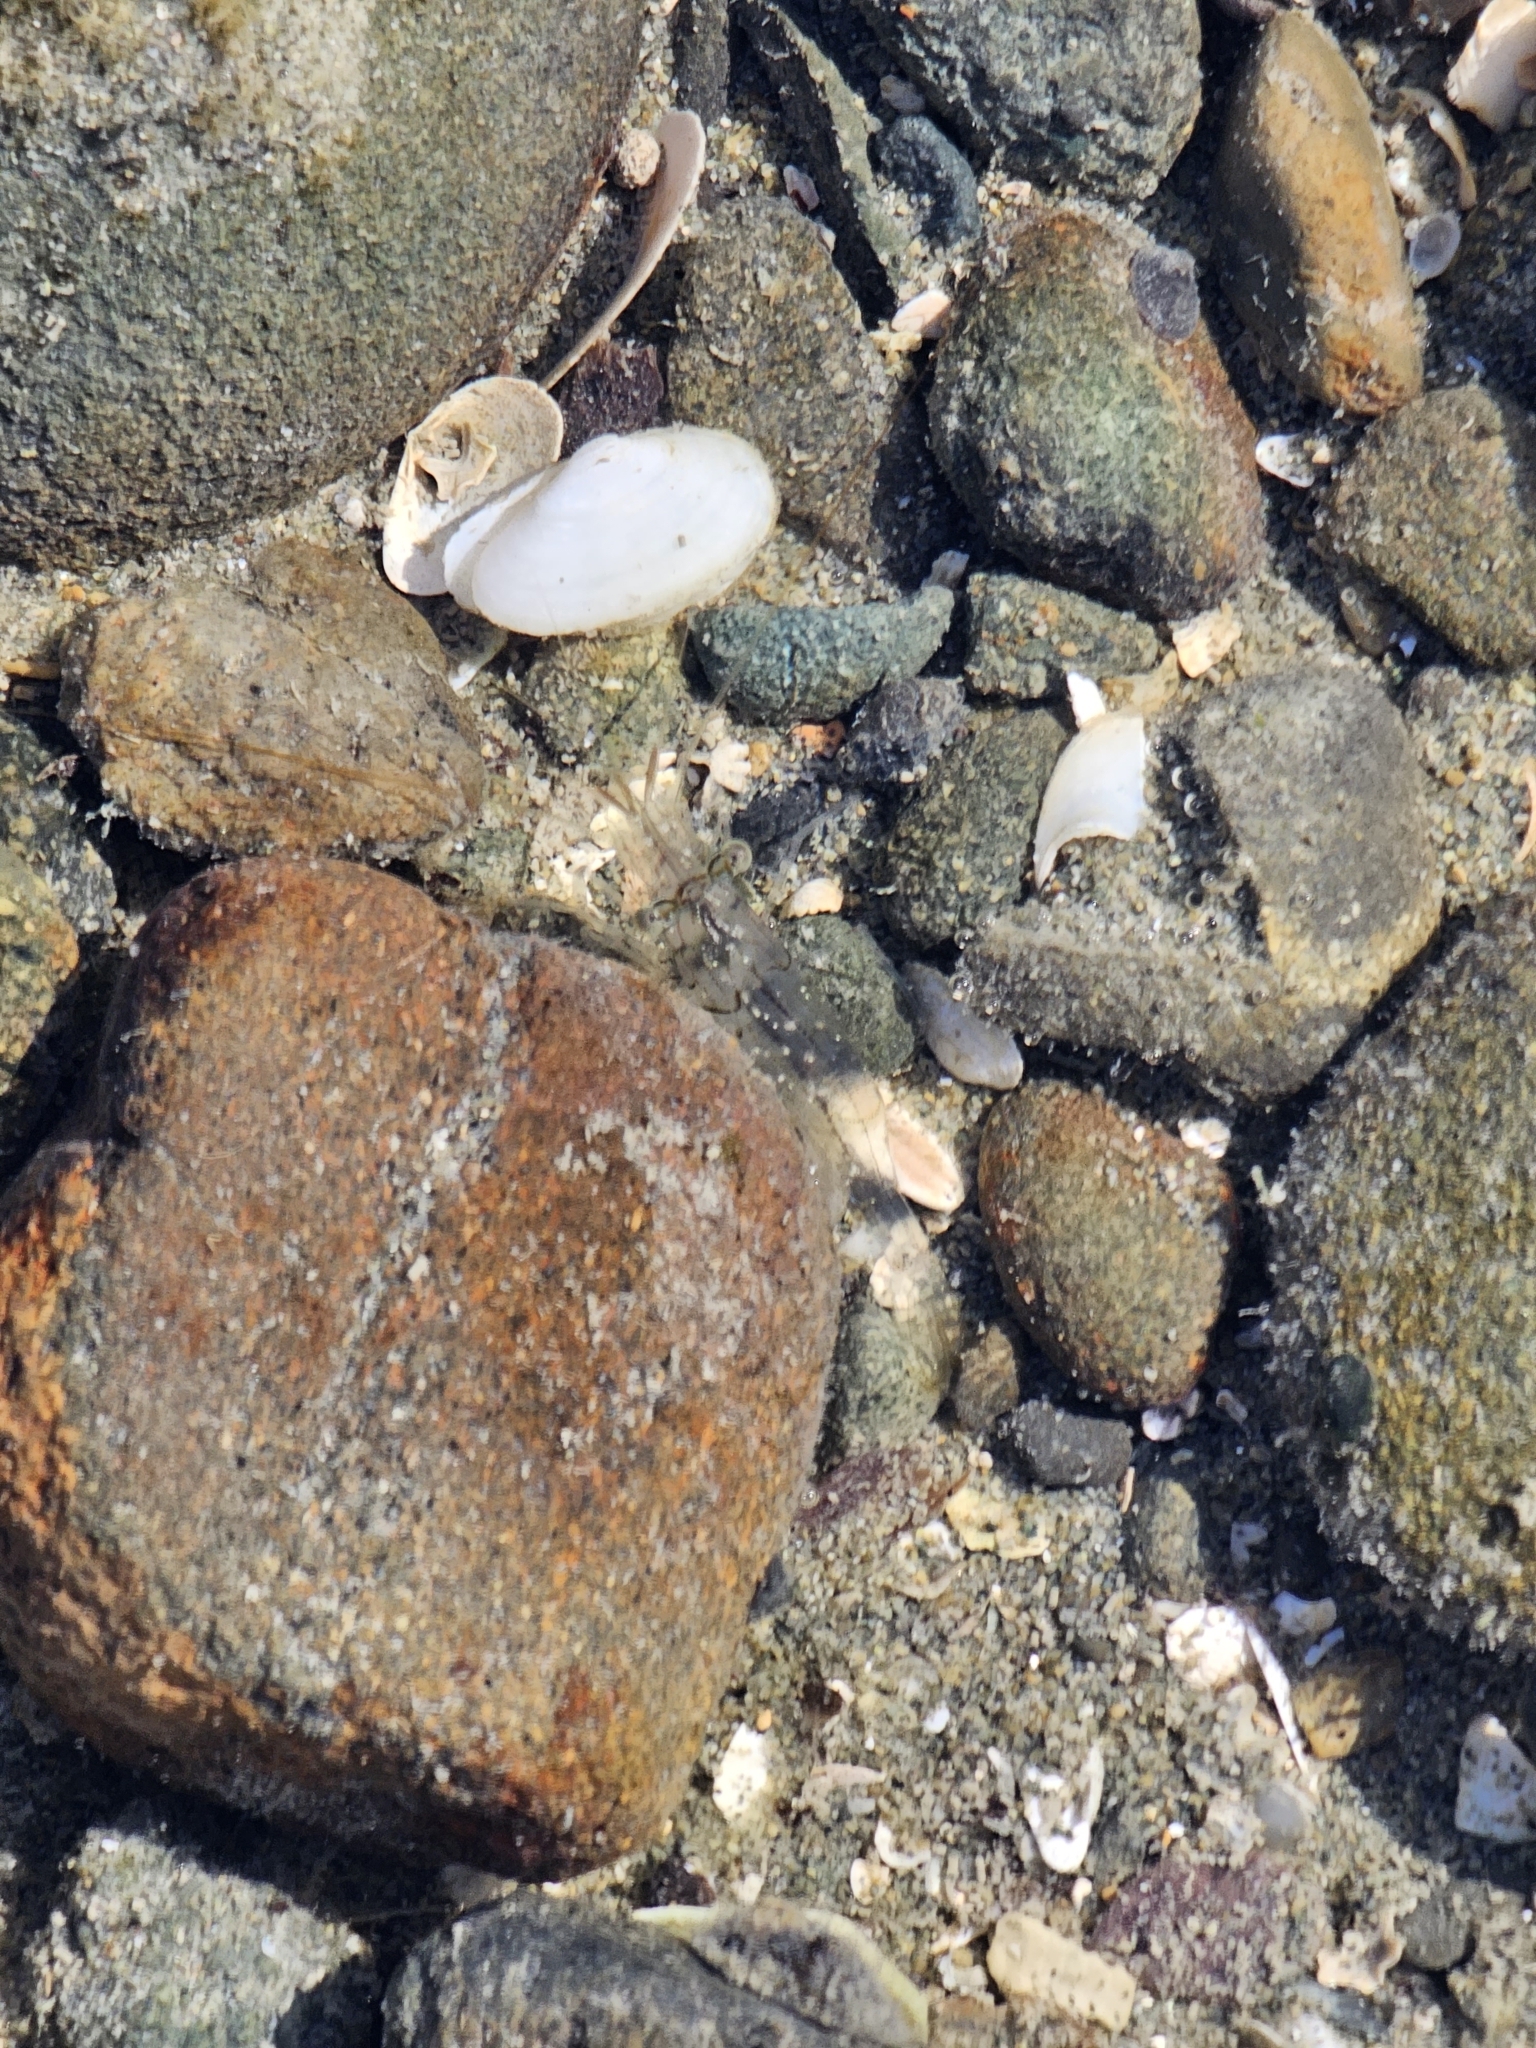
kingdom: Animalia
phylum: Arthropoda
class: Malacostraca
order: Decapoda
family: Palaemonidae
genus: Palaemon
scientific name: Palaemon affinis
